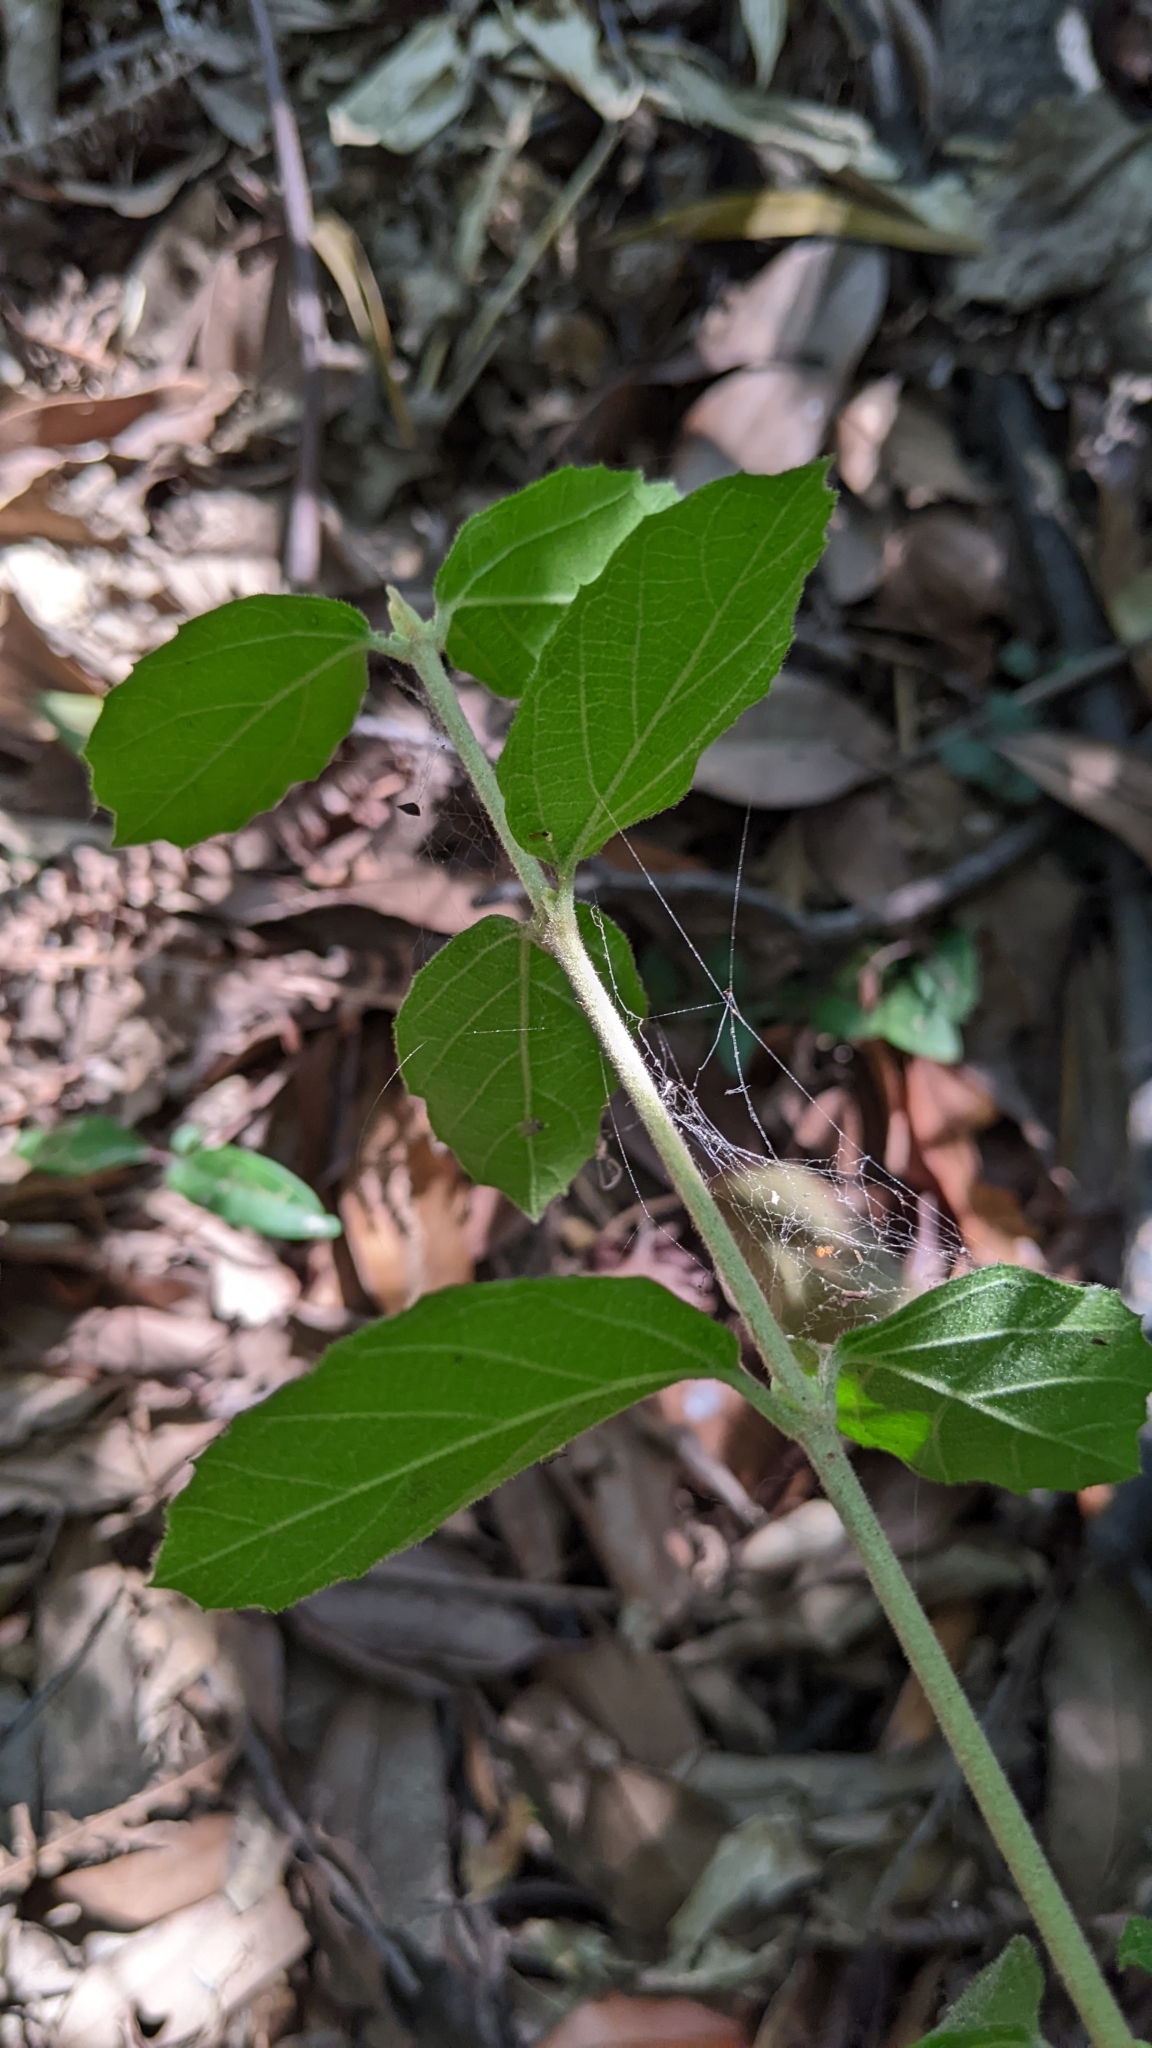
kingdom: Plantae
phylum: Tracheophyta
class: Magnoliopsida
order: Dipsacales
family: Viburnaceae
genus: Viburnum
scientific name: Viburnum luzonicum
